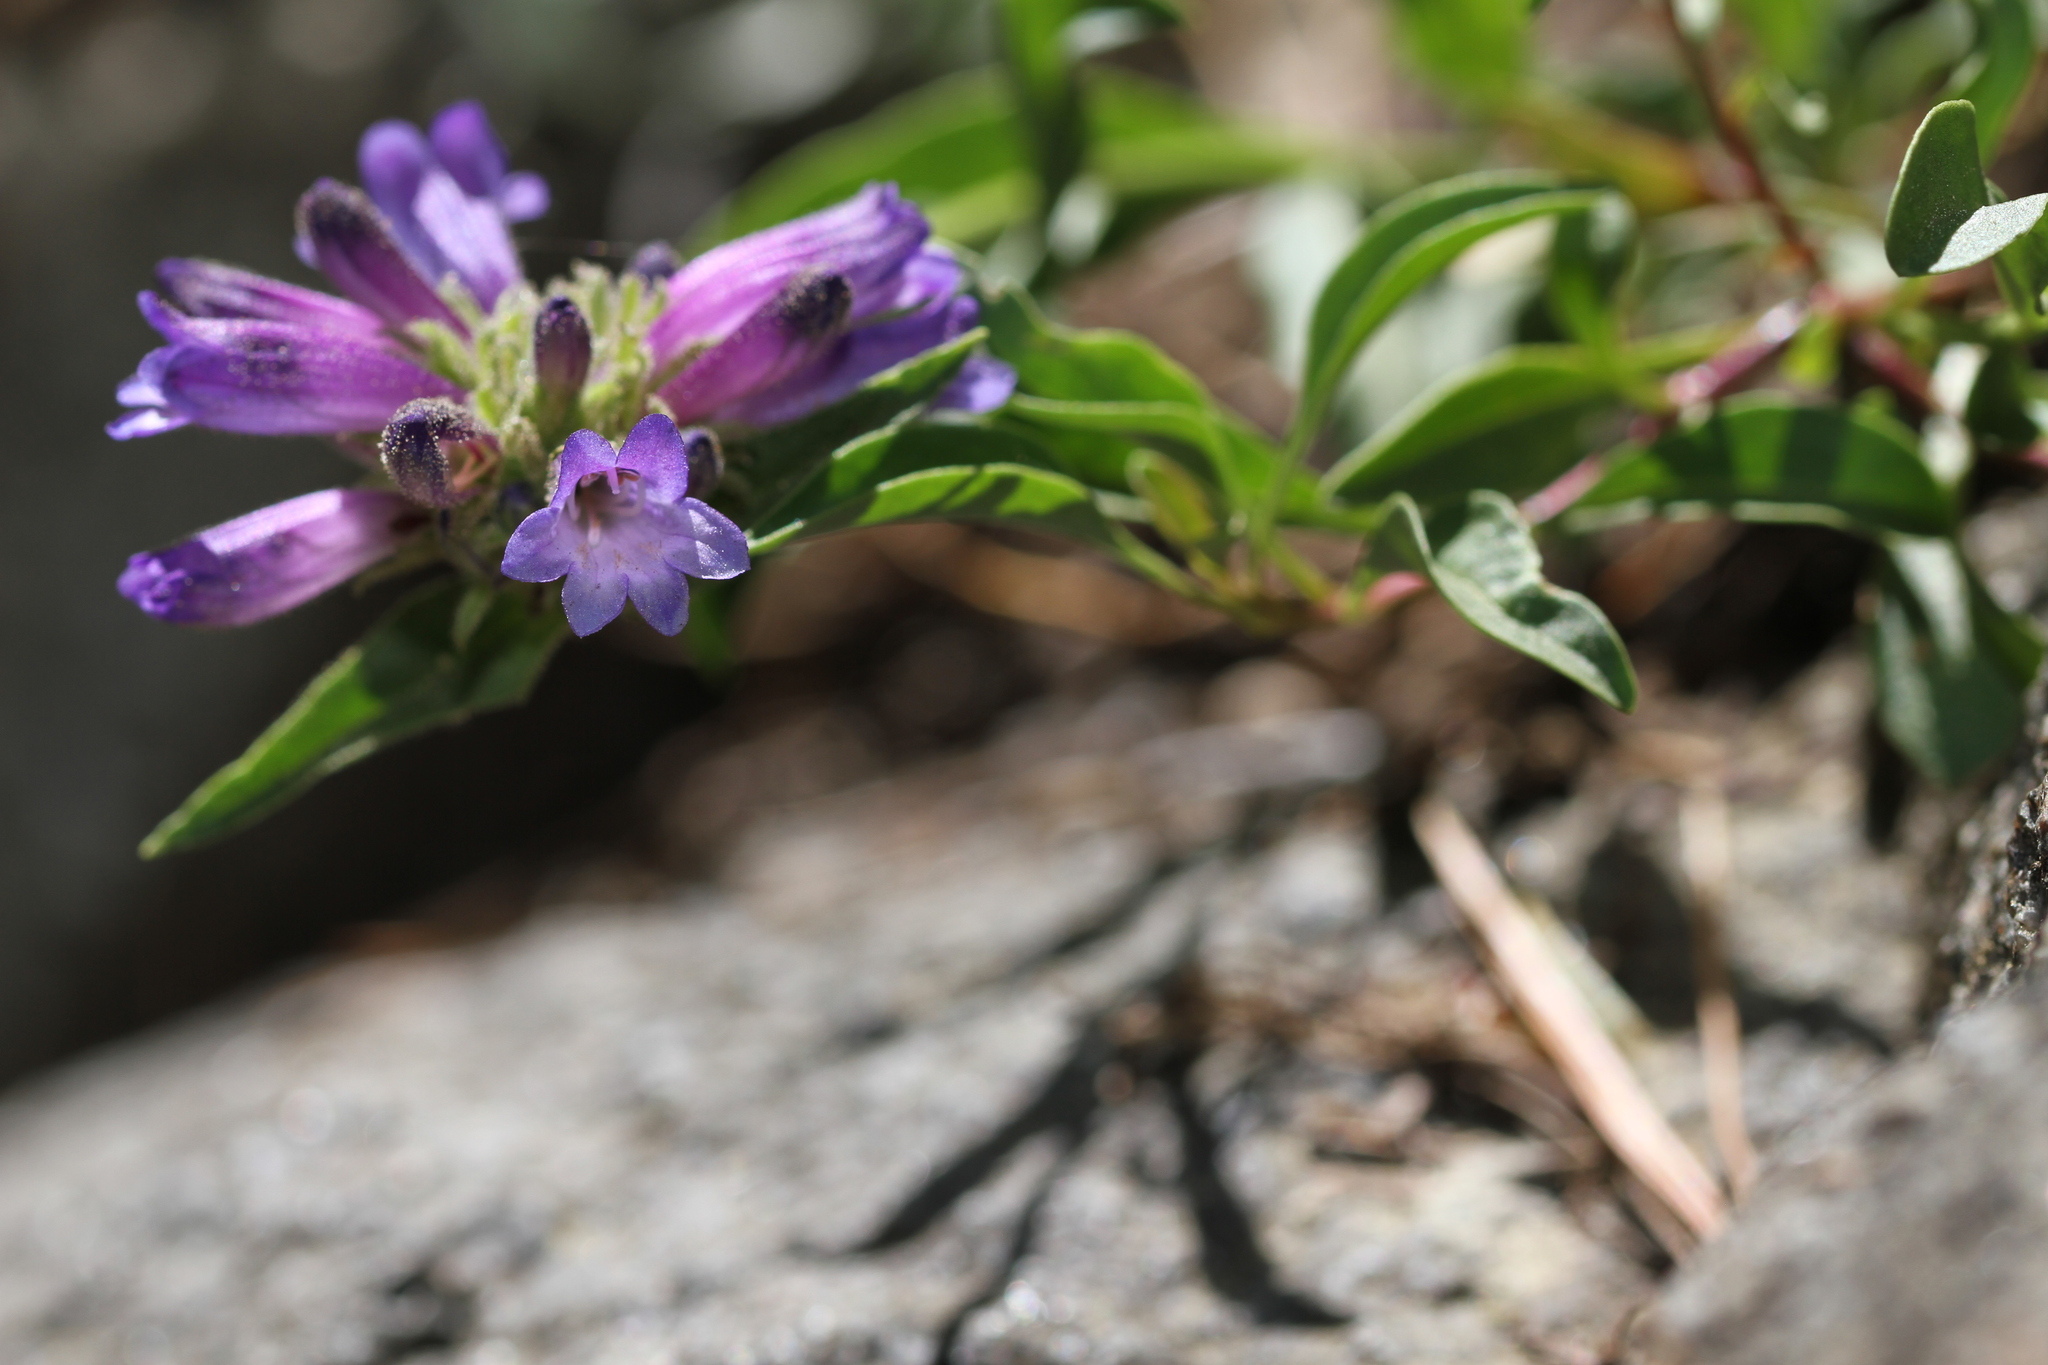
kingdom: Plantae
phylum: Tracheophyta
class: Magnoliopsida
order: Lamiales
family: Plantaginaceae
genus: Penstemon
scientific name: Penstemon heterodoxus
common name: Sierran penstemon
